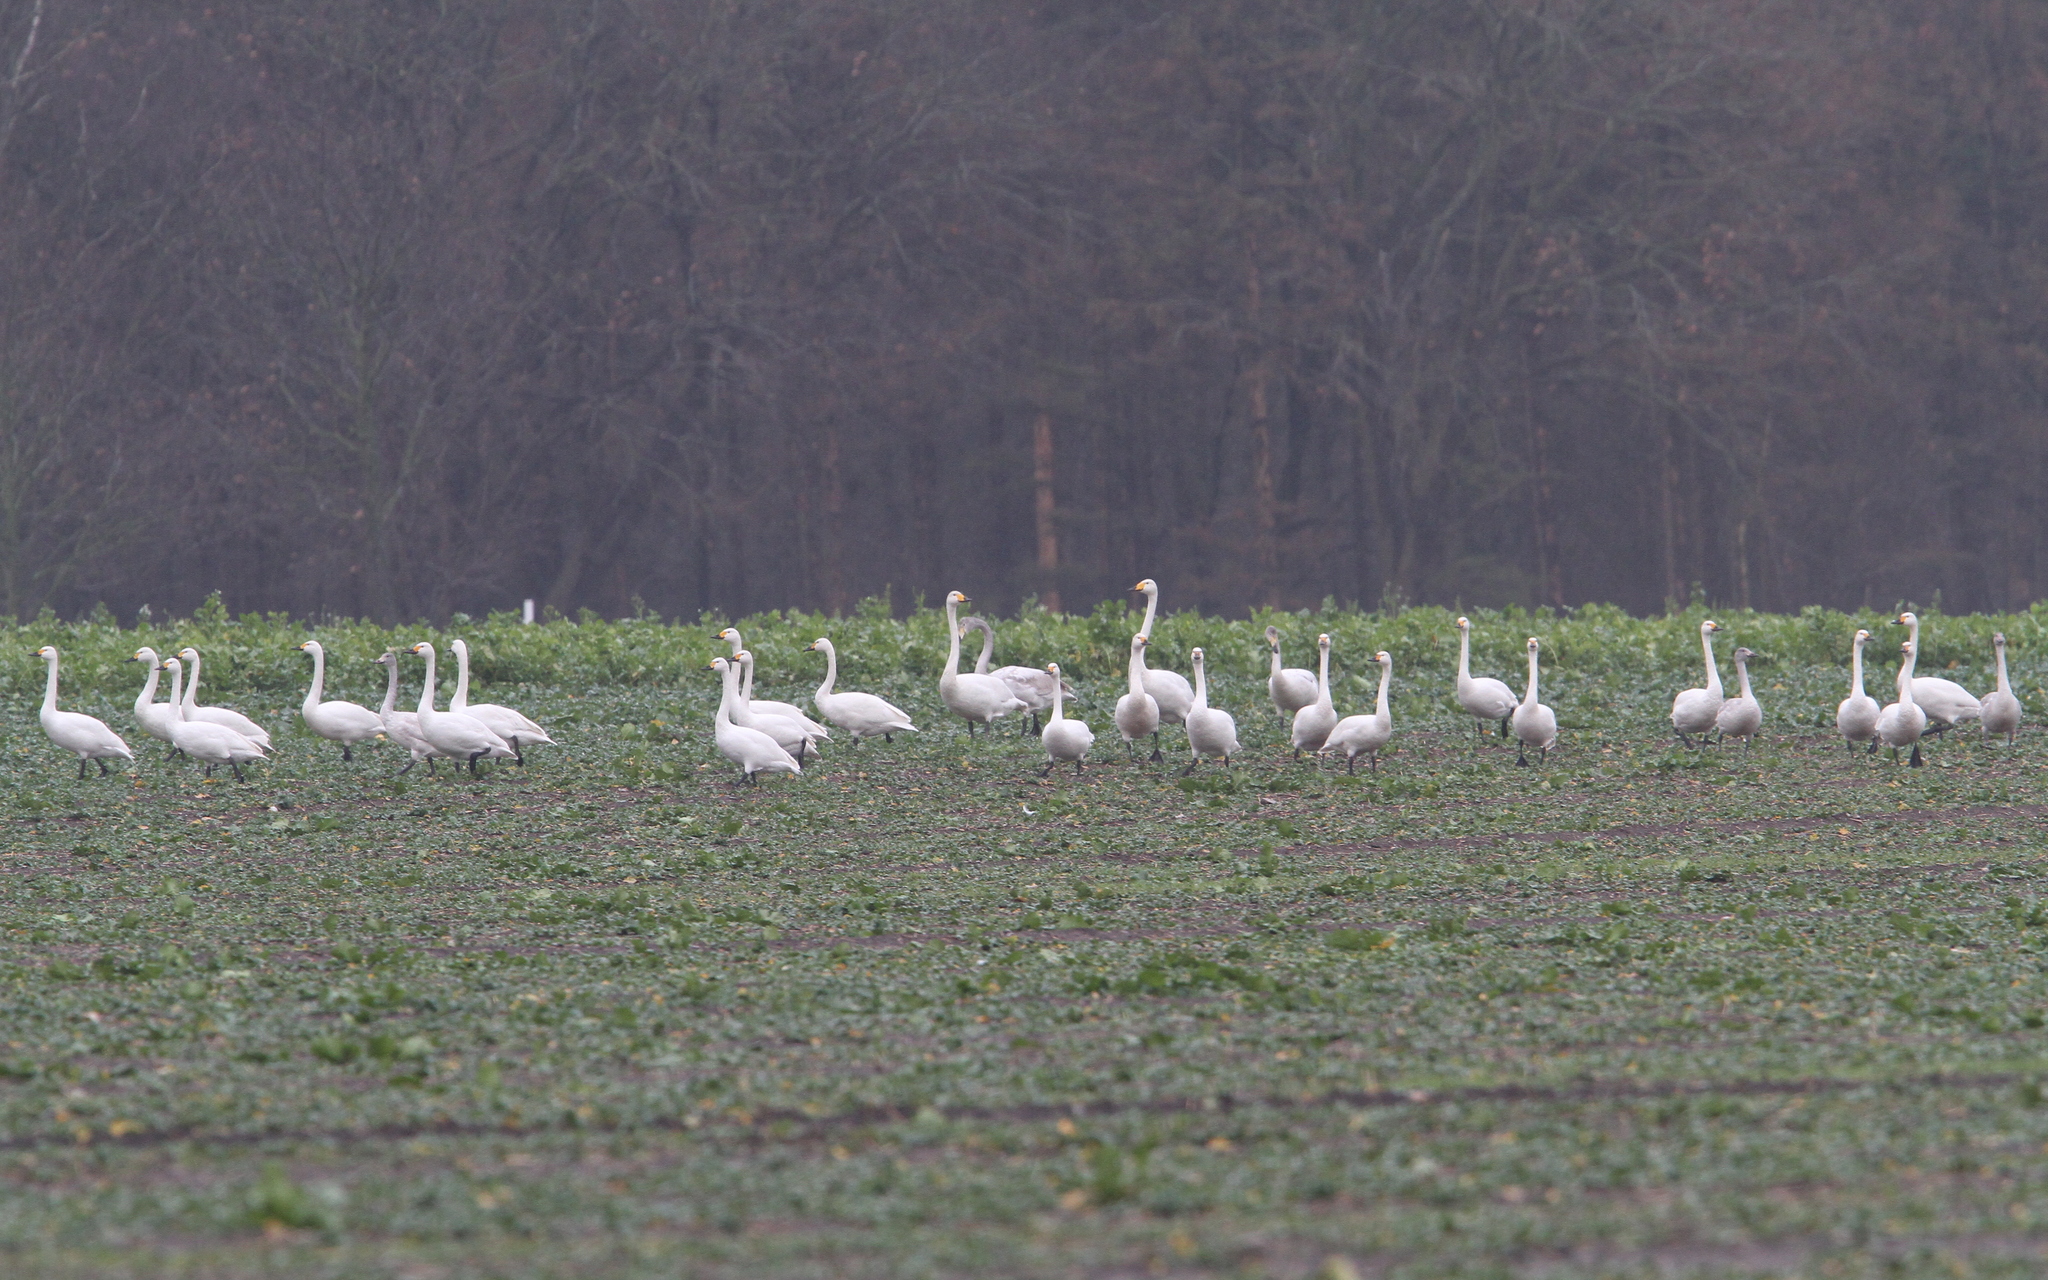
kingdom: Animalia
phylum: Chordata
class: Aves
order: Anseriformes
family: Anatidae
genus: Cygnus
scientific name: Cygnus columbianus
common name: Tundra swan
